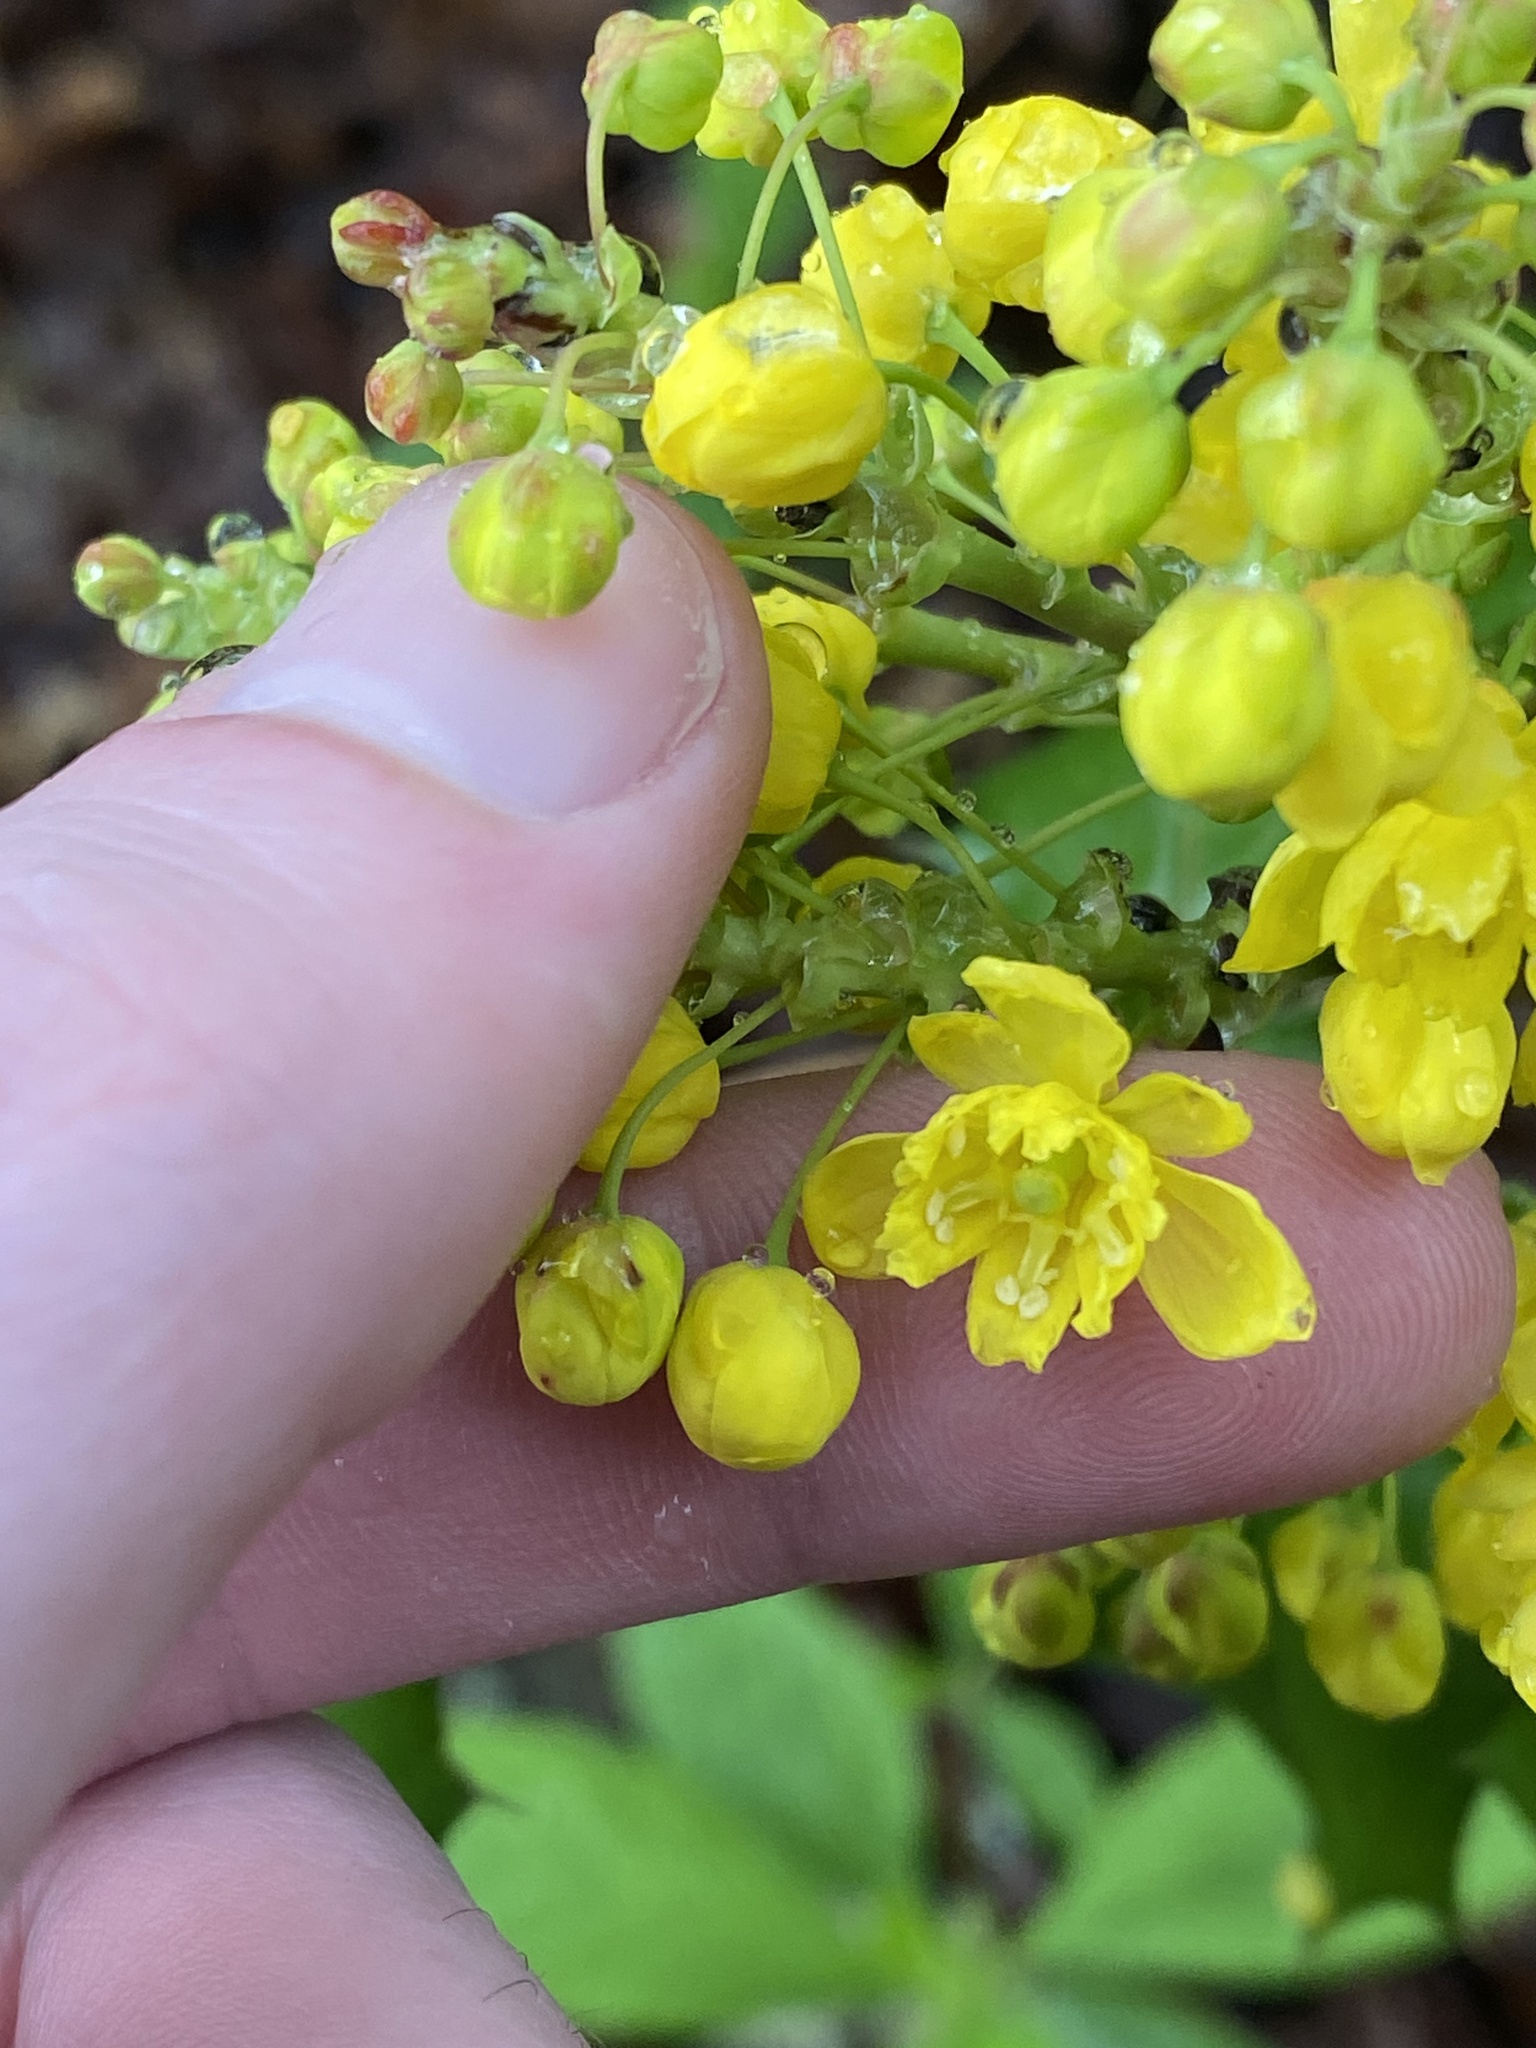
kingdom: Plantae
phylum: Tracheophyta
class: Magnoliopsida
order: Ranunculales
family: Berberidaceae
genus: Mahonia
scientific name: Mahonia aquifolium
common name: Oregon-grape
